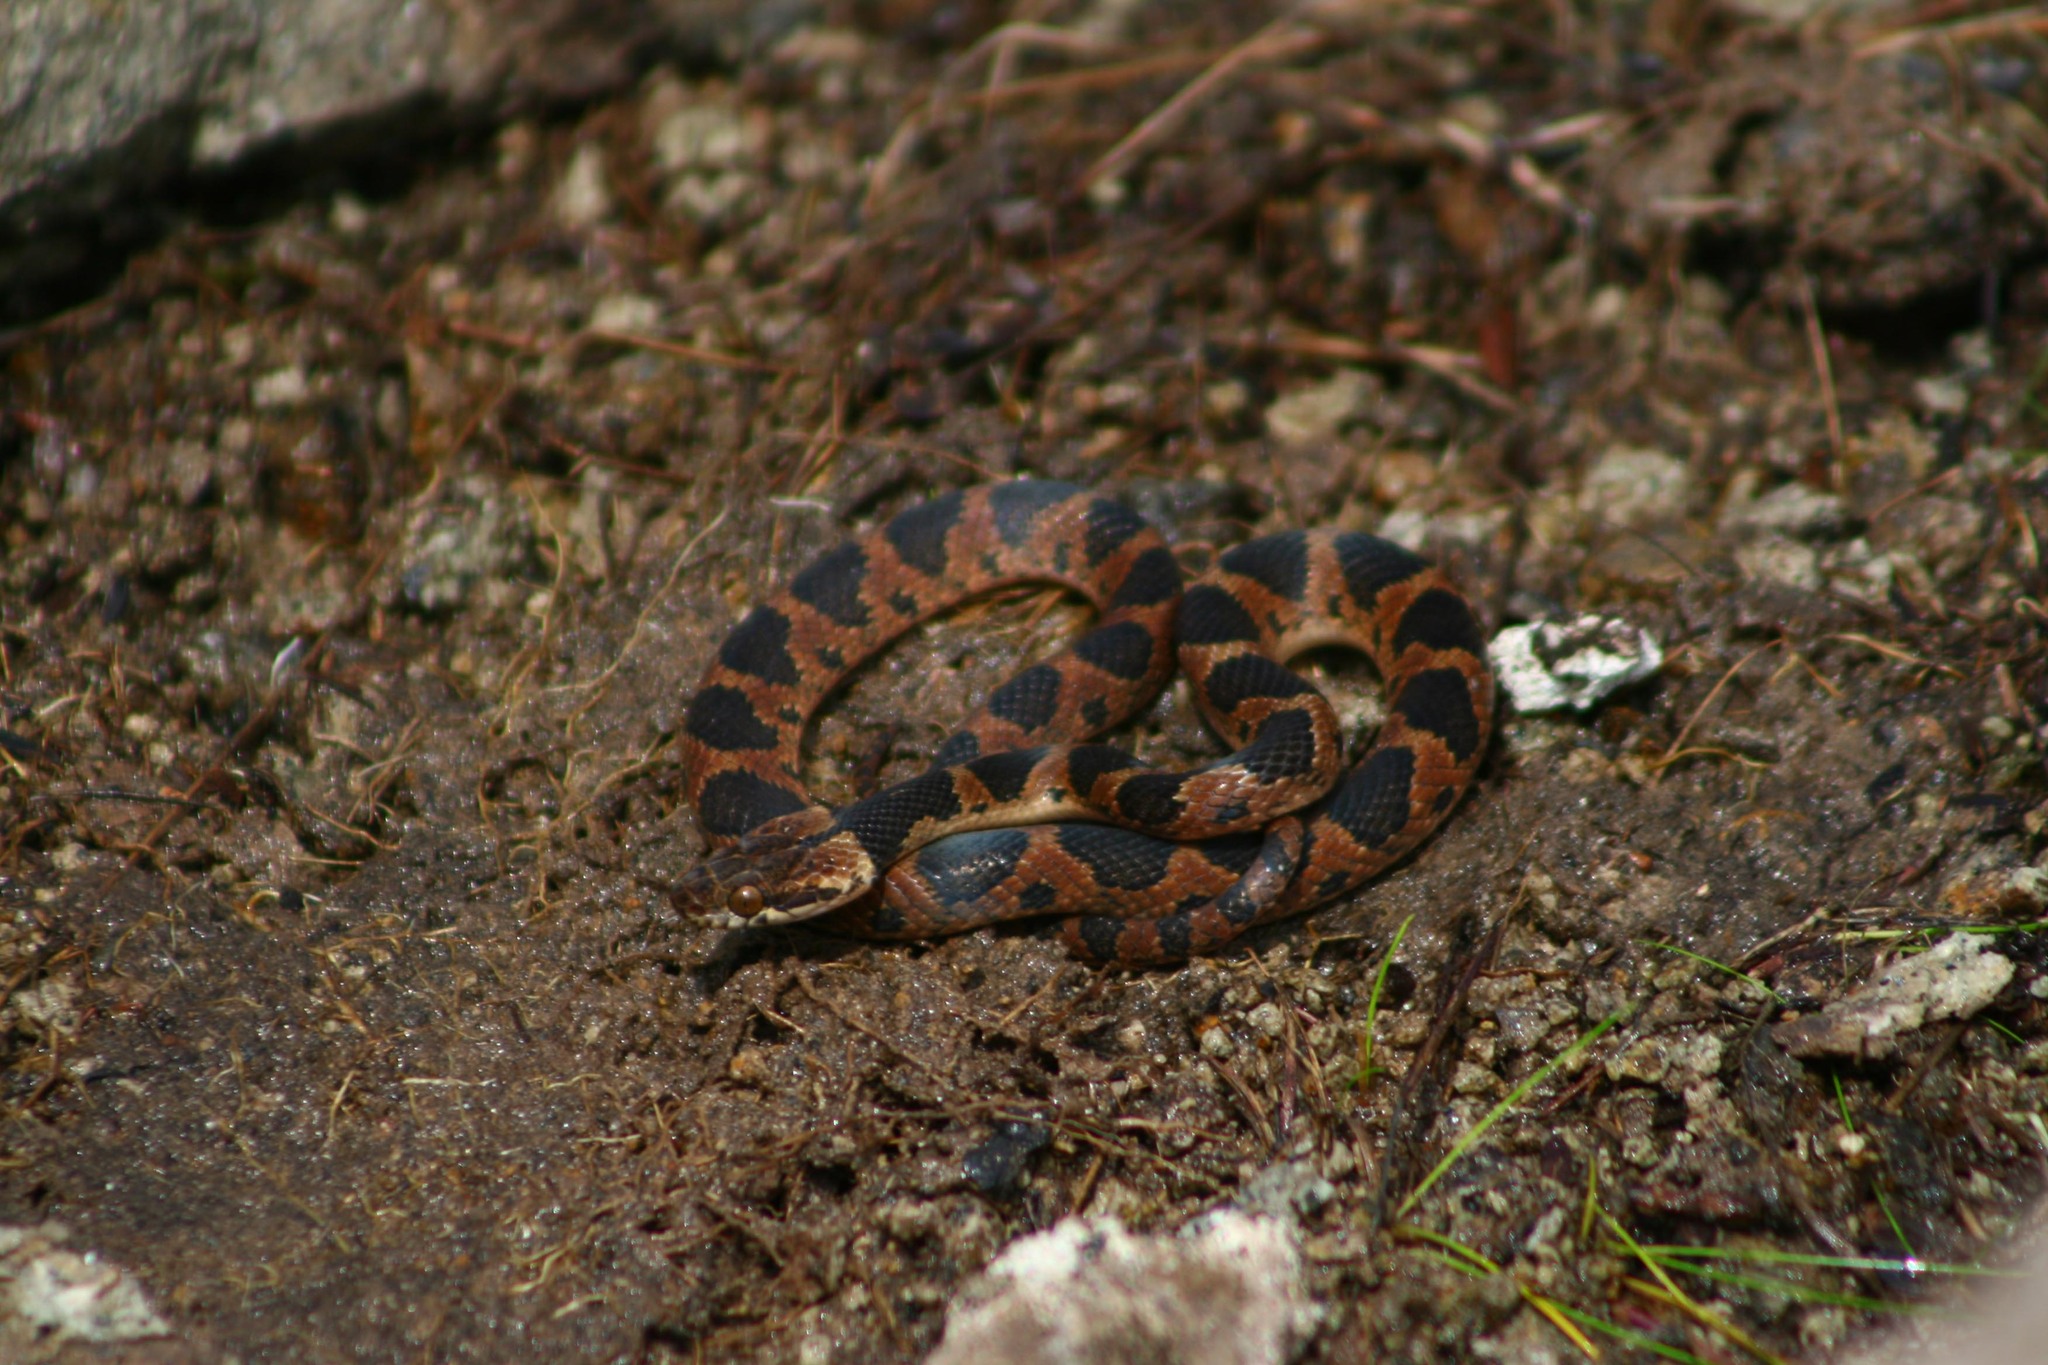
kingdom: Animalia
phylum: Chordata
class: Squamata
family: Colubridae
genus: Leptodeira
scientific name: Leptodeira rhombifera
